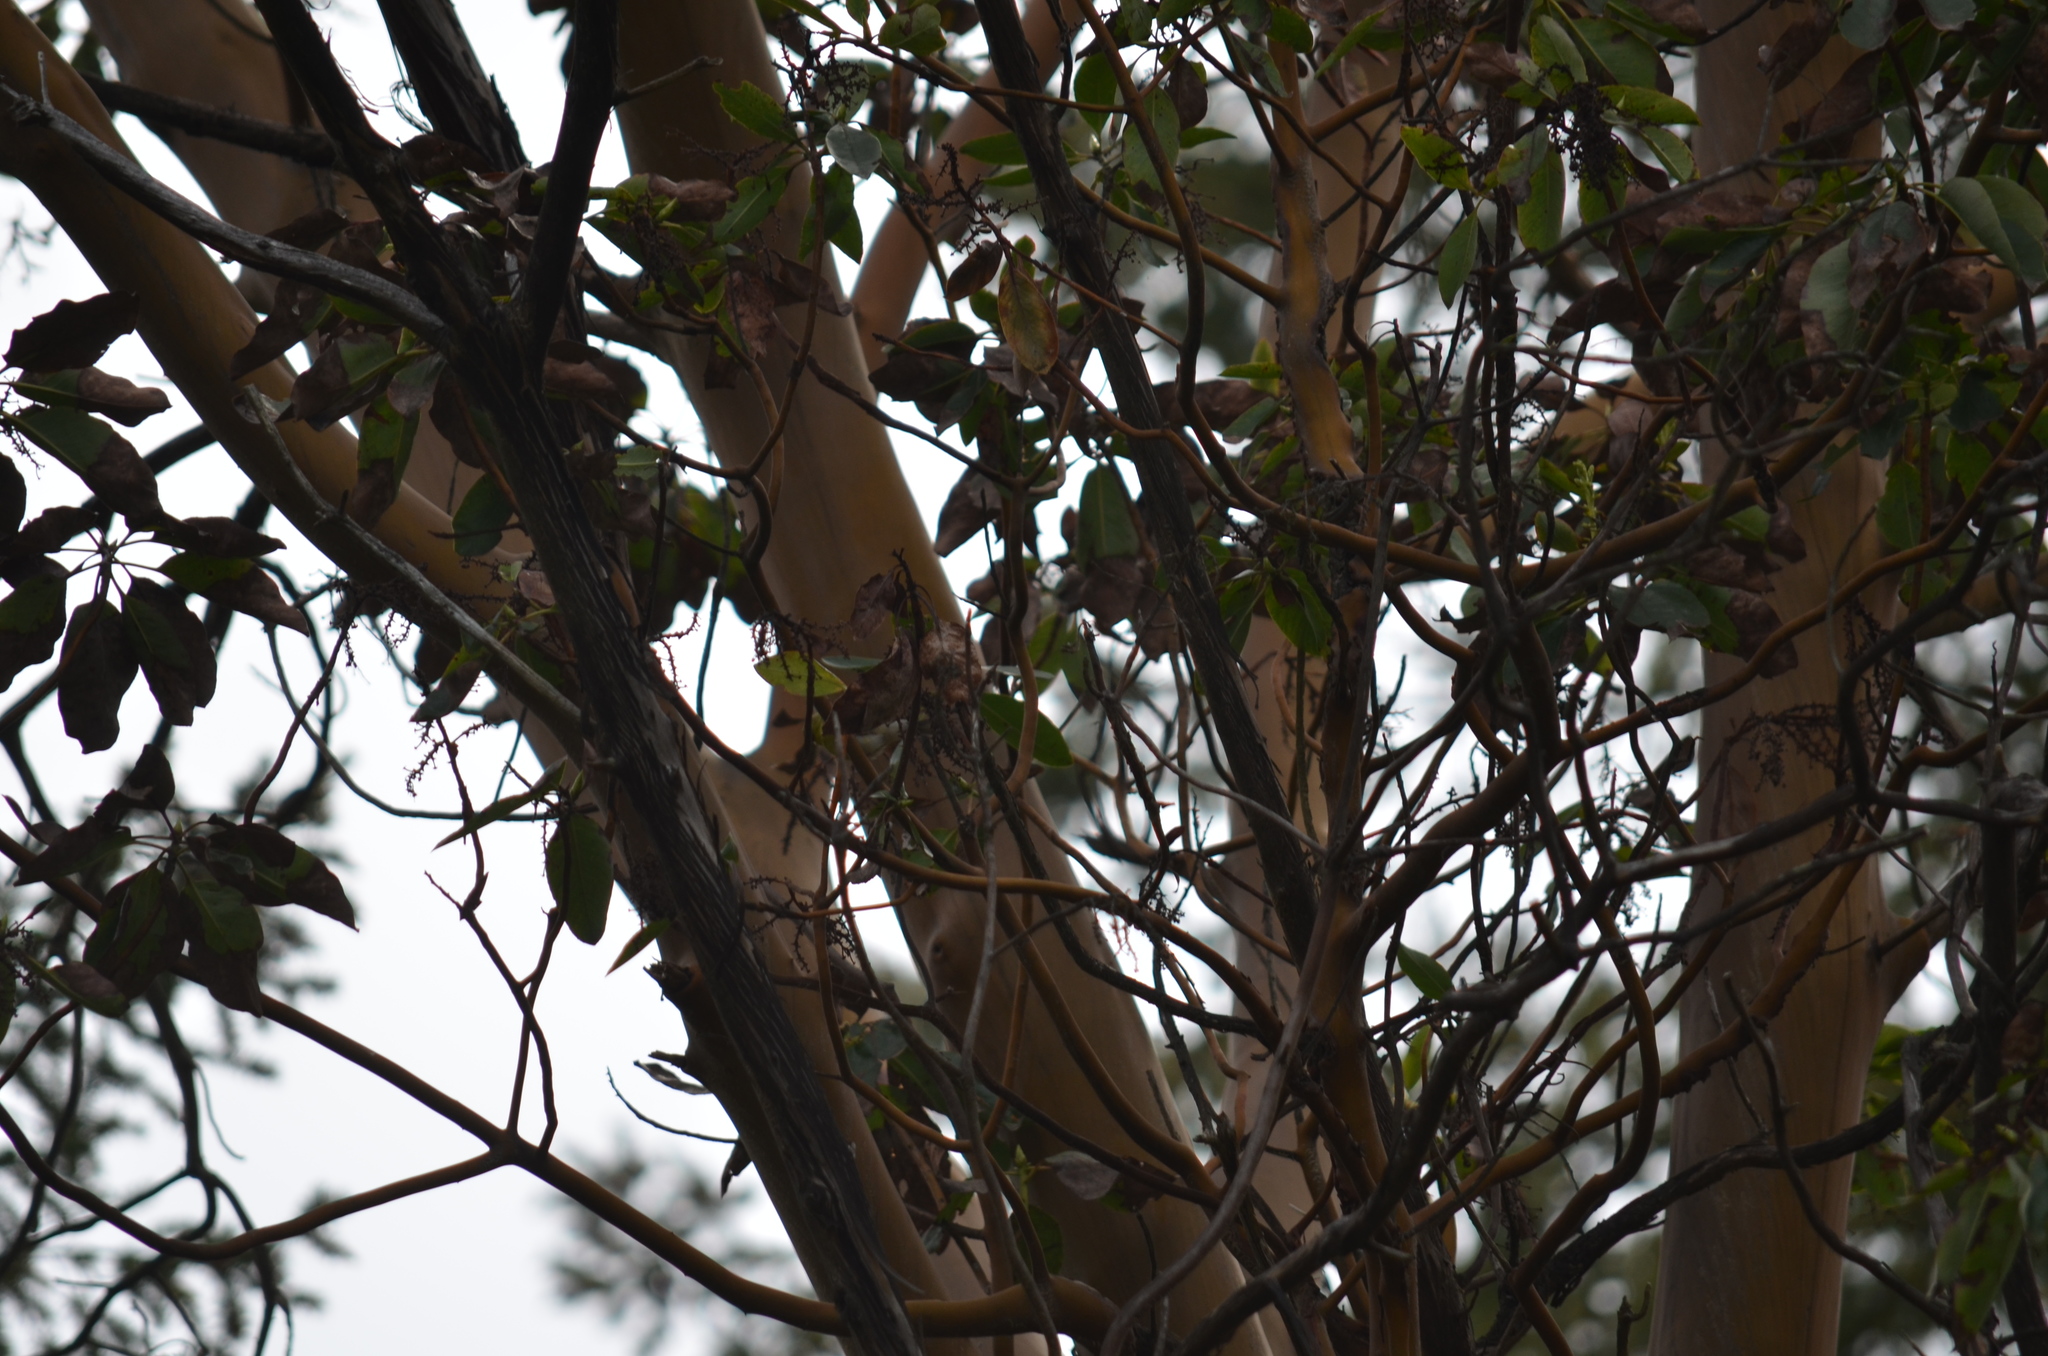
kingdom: Plantae
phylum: Tracheophyta
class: Magnoliopsida
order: Ericales
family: Ericaceae
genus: Arbutus
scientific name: Arbutus menziesii
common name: Pacific madrone
